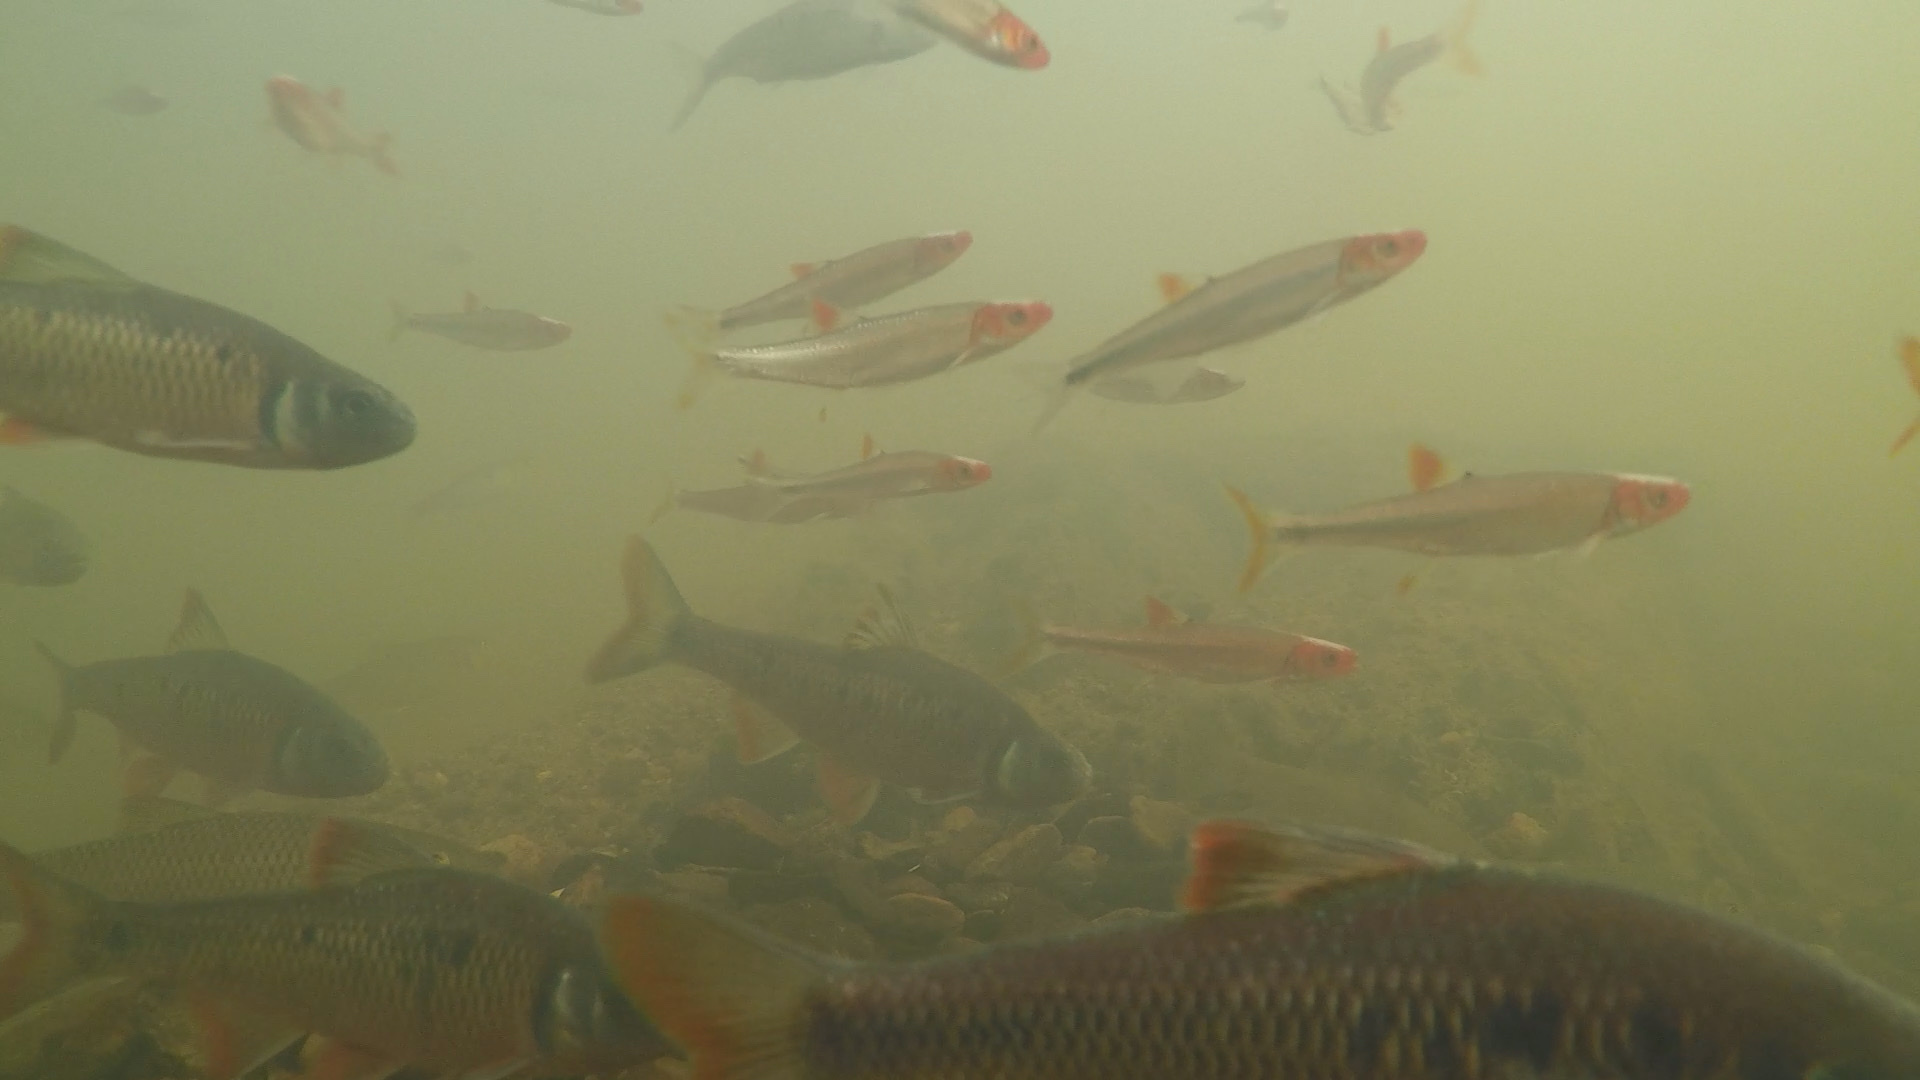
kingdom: Animalia
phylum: Chordata
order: Cypriniformes
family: Cyprinidae
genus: Lythrurus
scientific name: Lythrurus matutinus
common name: Pinewoods shiner
